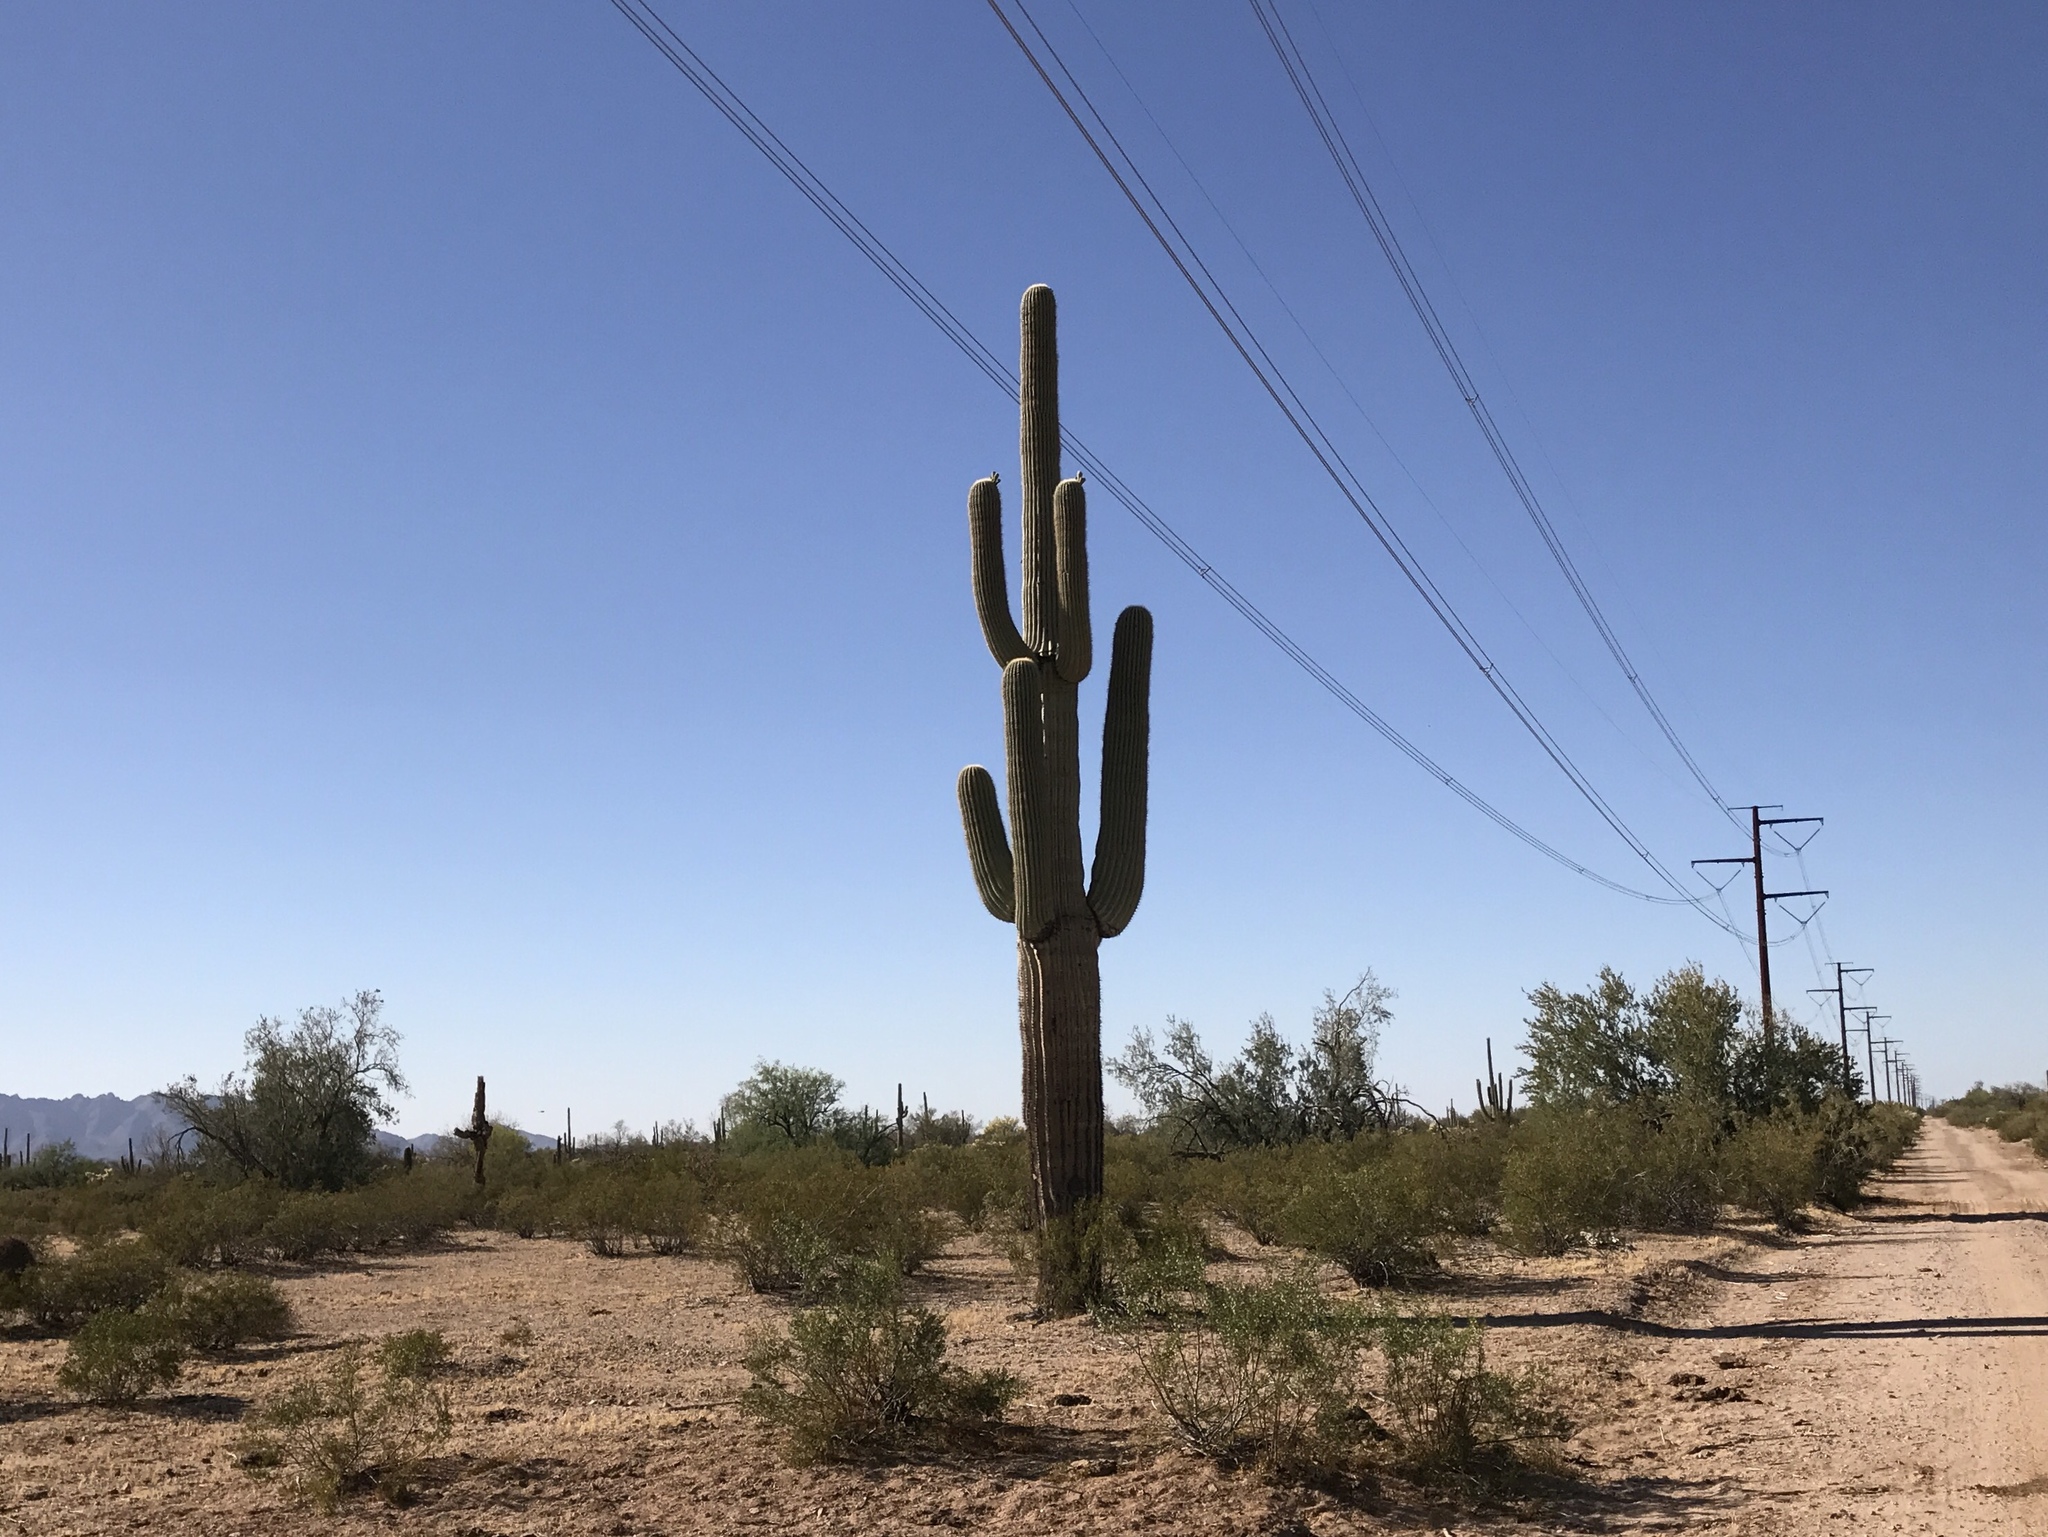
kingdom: Plantae
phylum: Tracheophyta
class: Magnoliopsida
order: Caryophyllales
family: Cactaceae
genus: Carnegiea
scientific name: Carnegiea gigantea
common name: Saguaro
